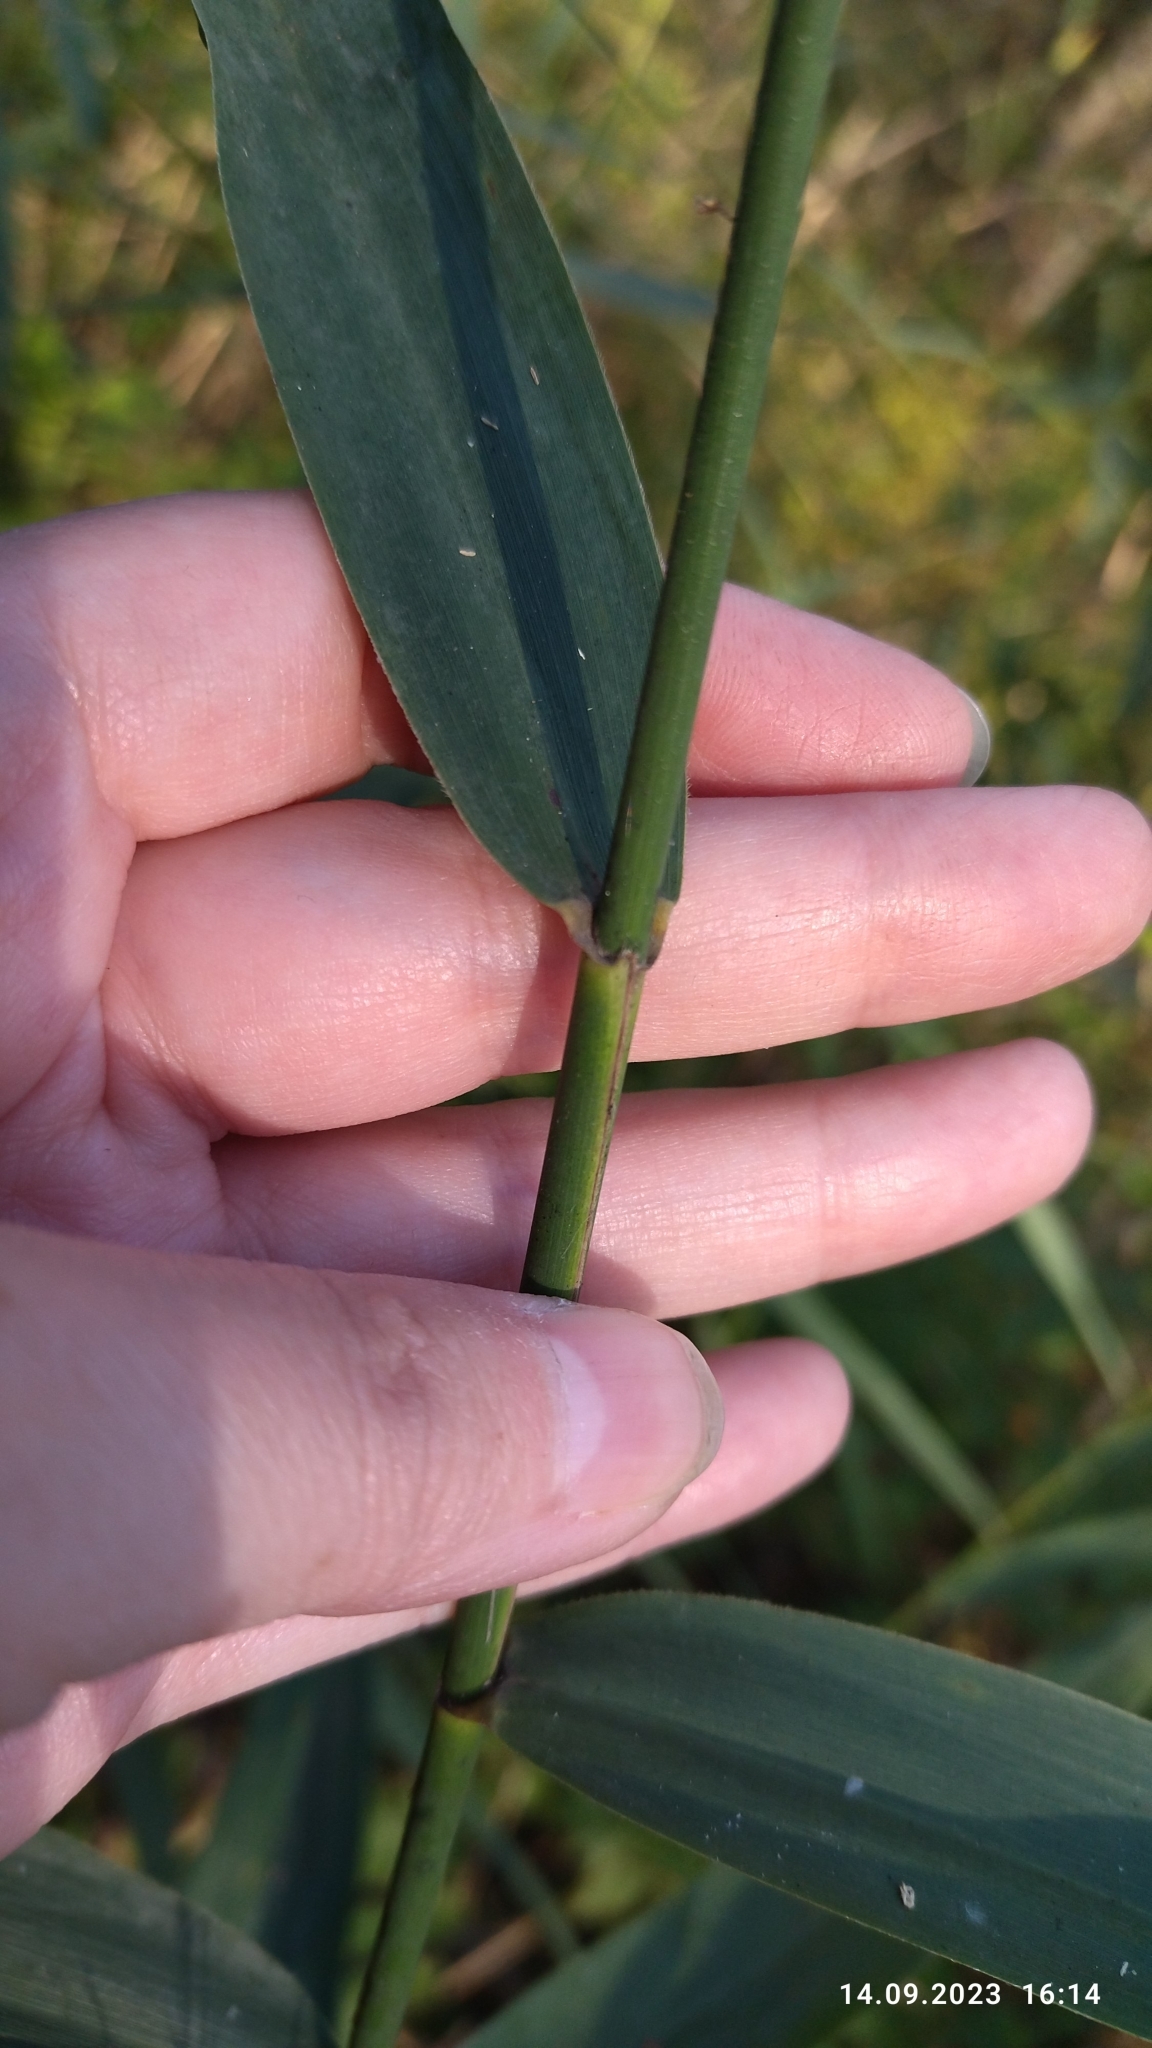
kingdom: Plantae
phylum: Tracheophyta
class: Liliopsida
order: Poales
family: Poaceae
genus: Phragmites
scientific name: Phragmites australis
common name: Common reed
